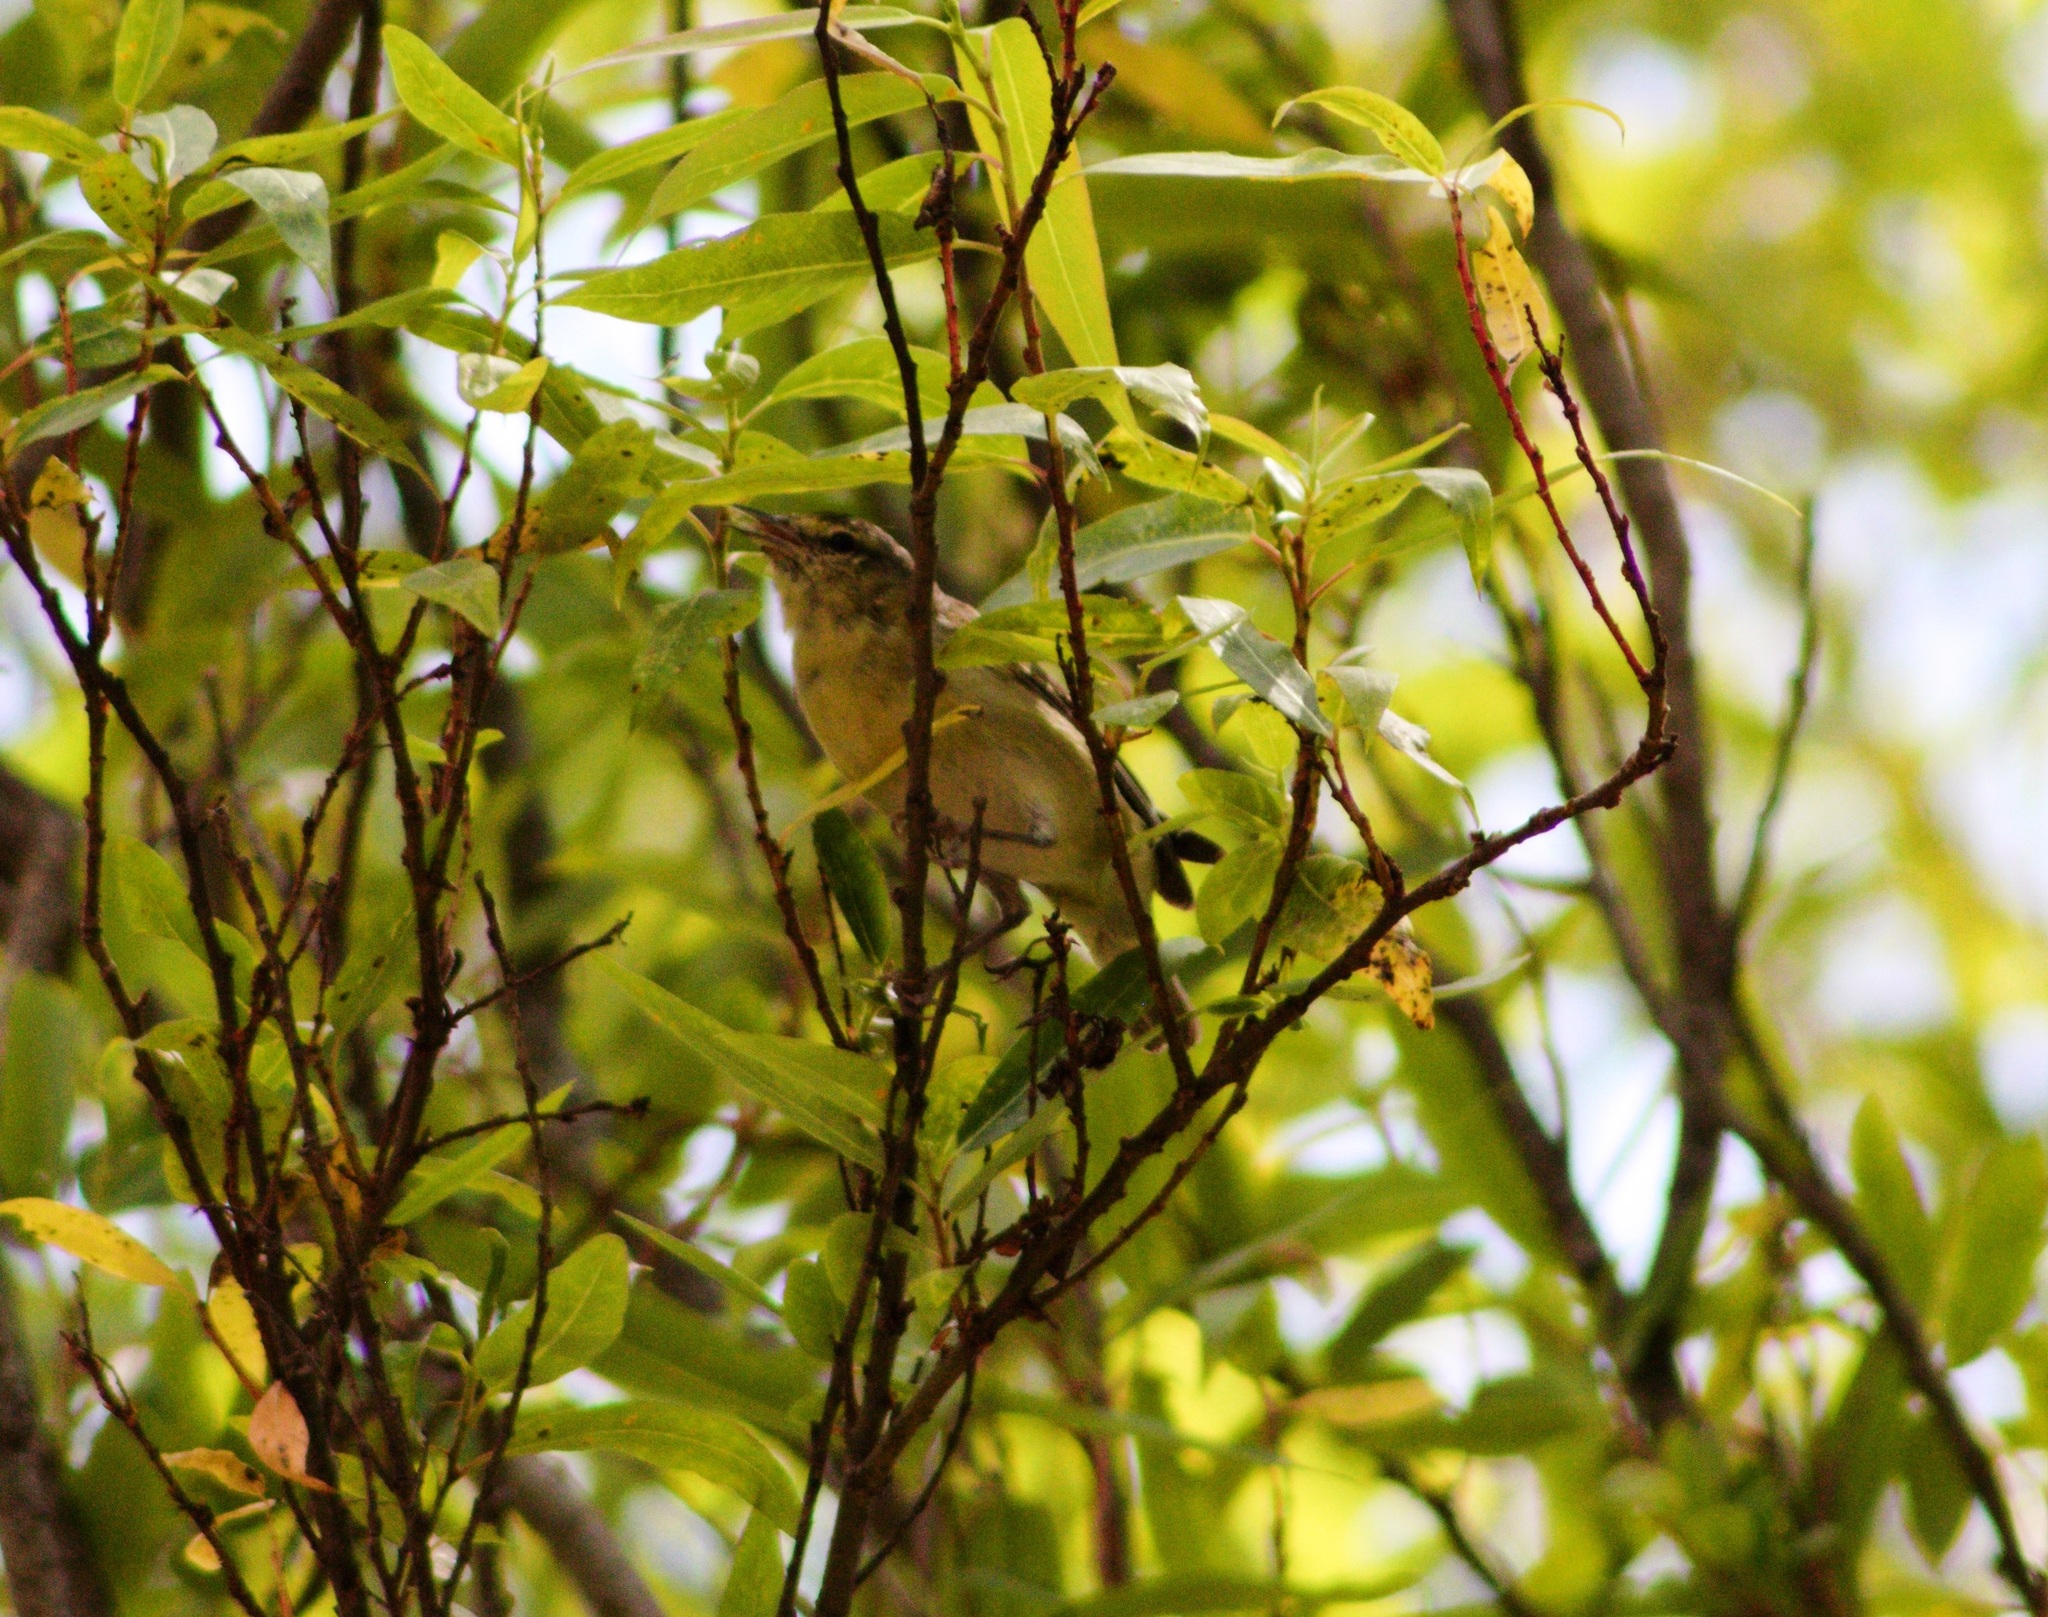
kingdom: Animalia
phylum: Chordata
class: Aves
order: Passeriformes
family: Parulidae
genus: Leiothlypis
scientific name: Leiothlypis peregrina
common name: Tennessee warbler
